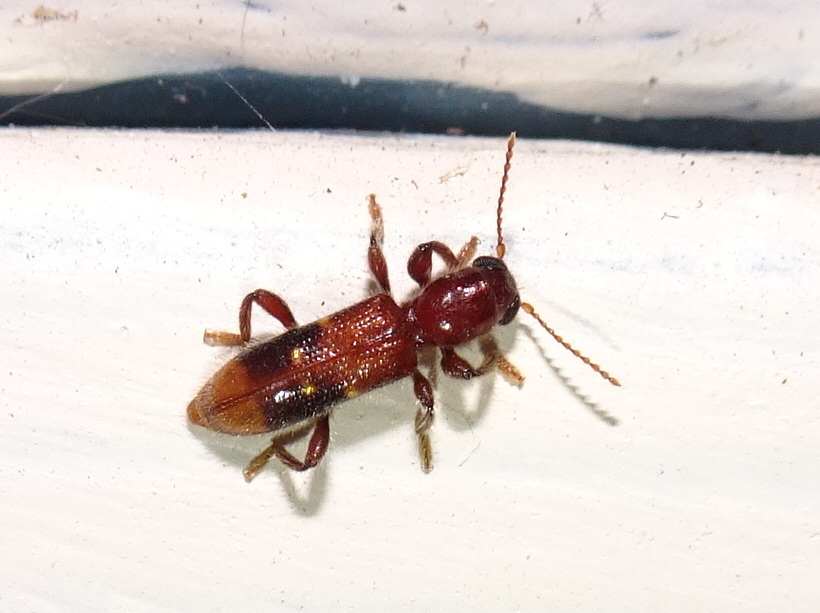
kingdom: Animalia
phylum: Arthropoda
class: Insecta
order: Coleoptera
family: Cleridae
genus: Priocera
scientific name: Priocera castanea
